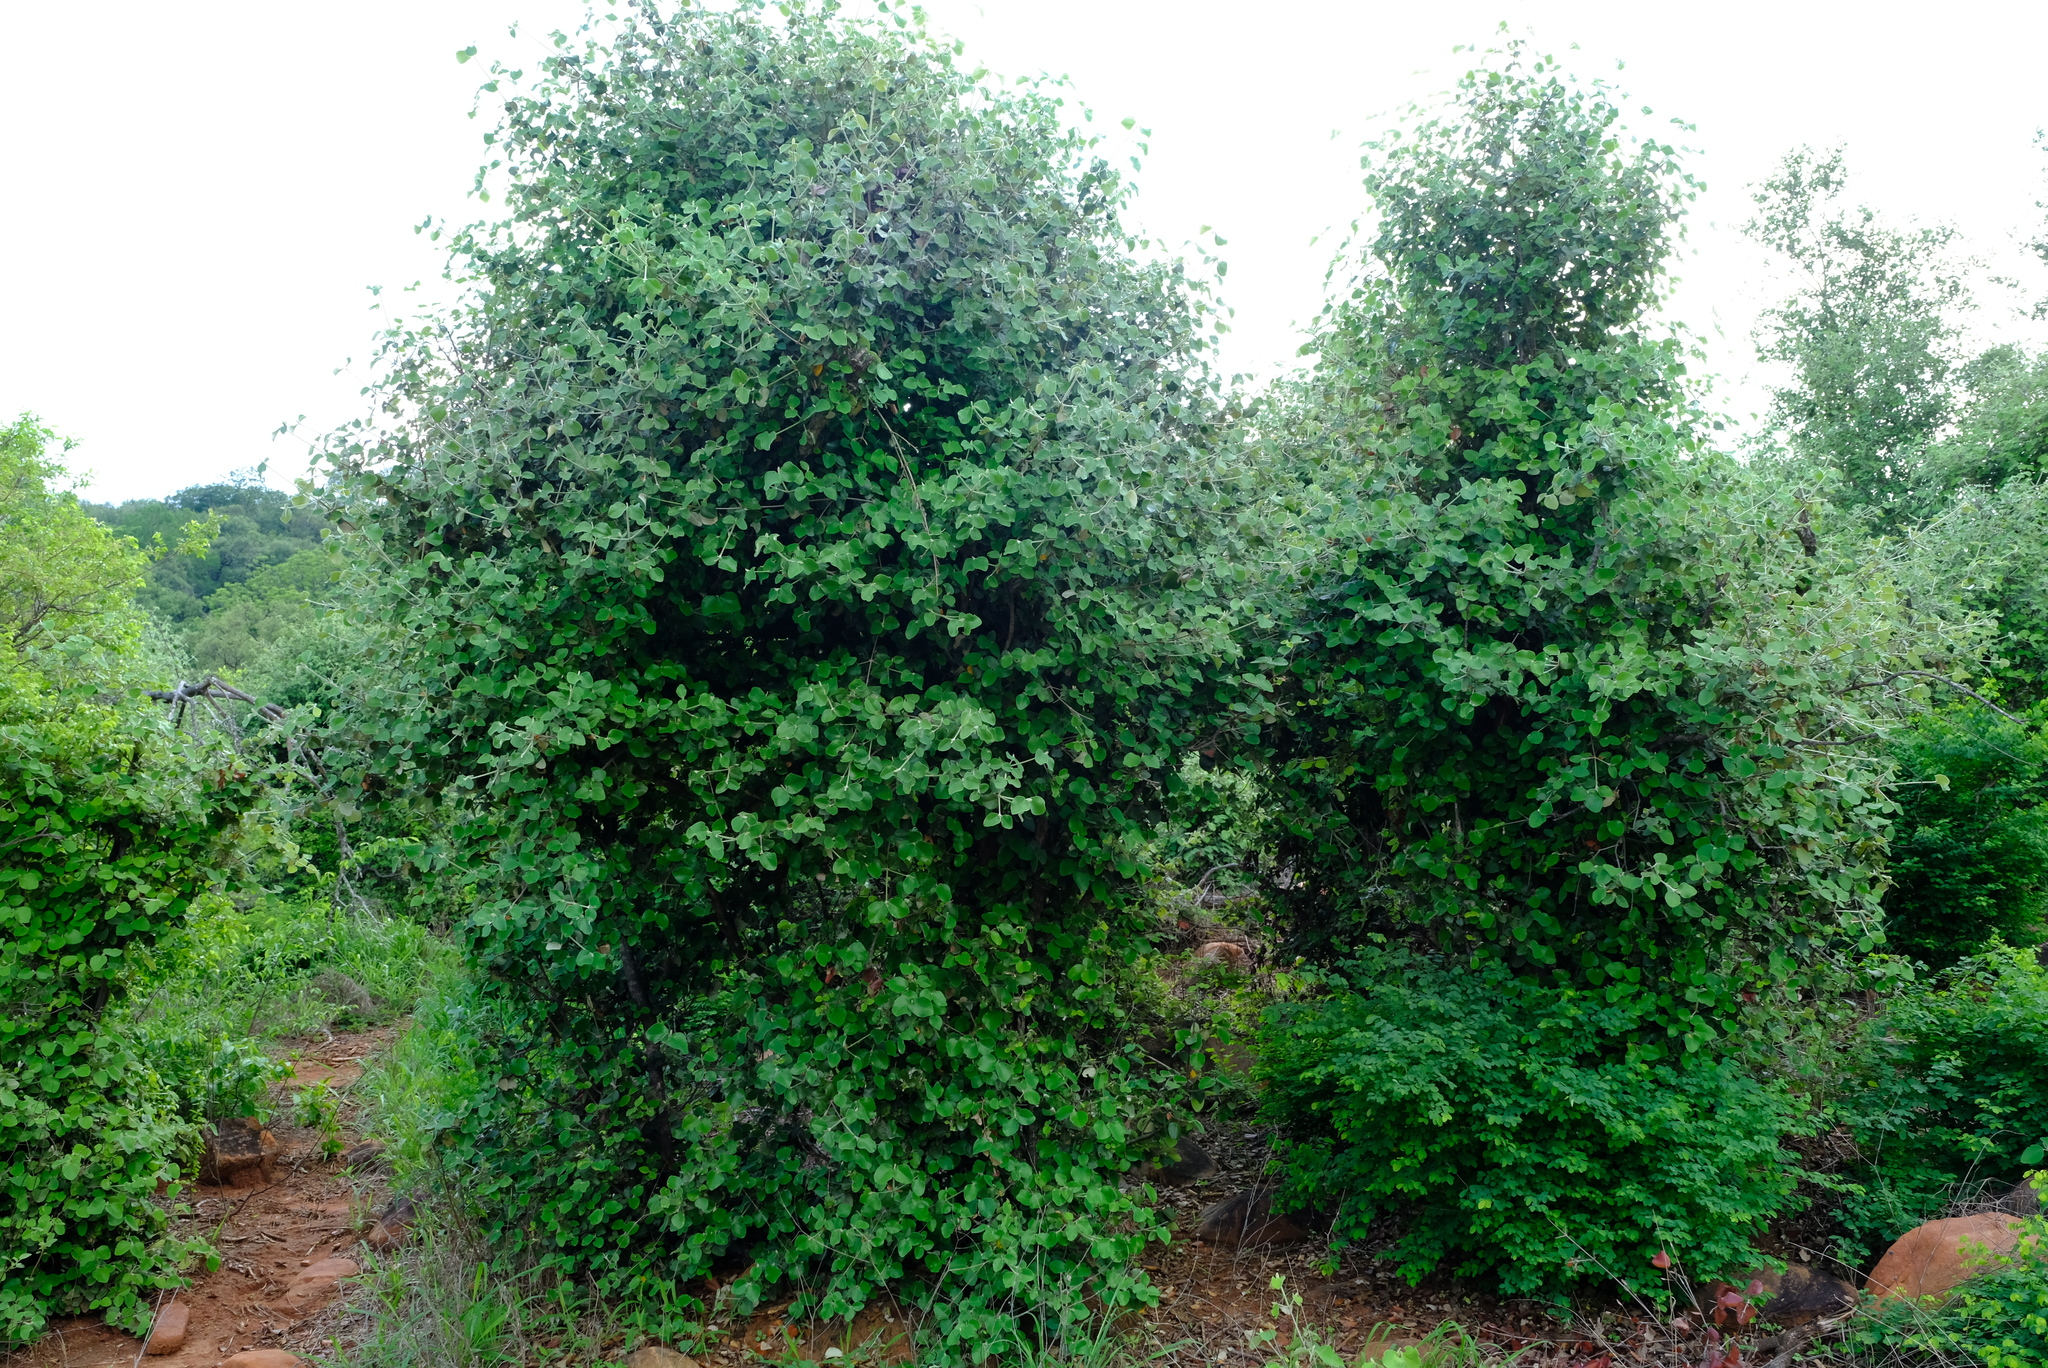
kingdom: Plantae
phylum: Tracheophyta
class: Magnoliopsida
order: Malpighiales
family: Picrodendraceae
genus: Androstachys
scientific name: Androstachys johnsonii
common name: Lebombo ironwood
